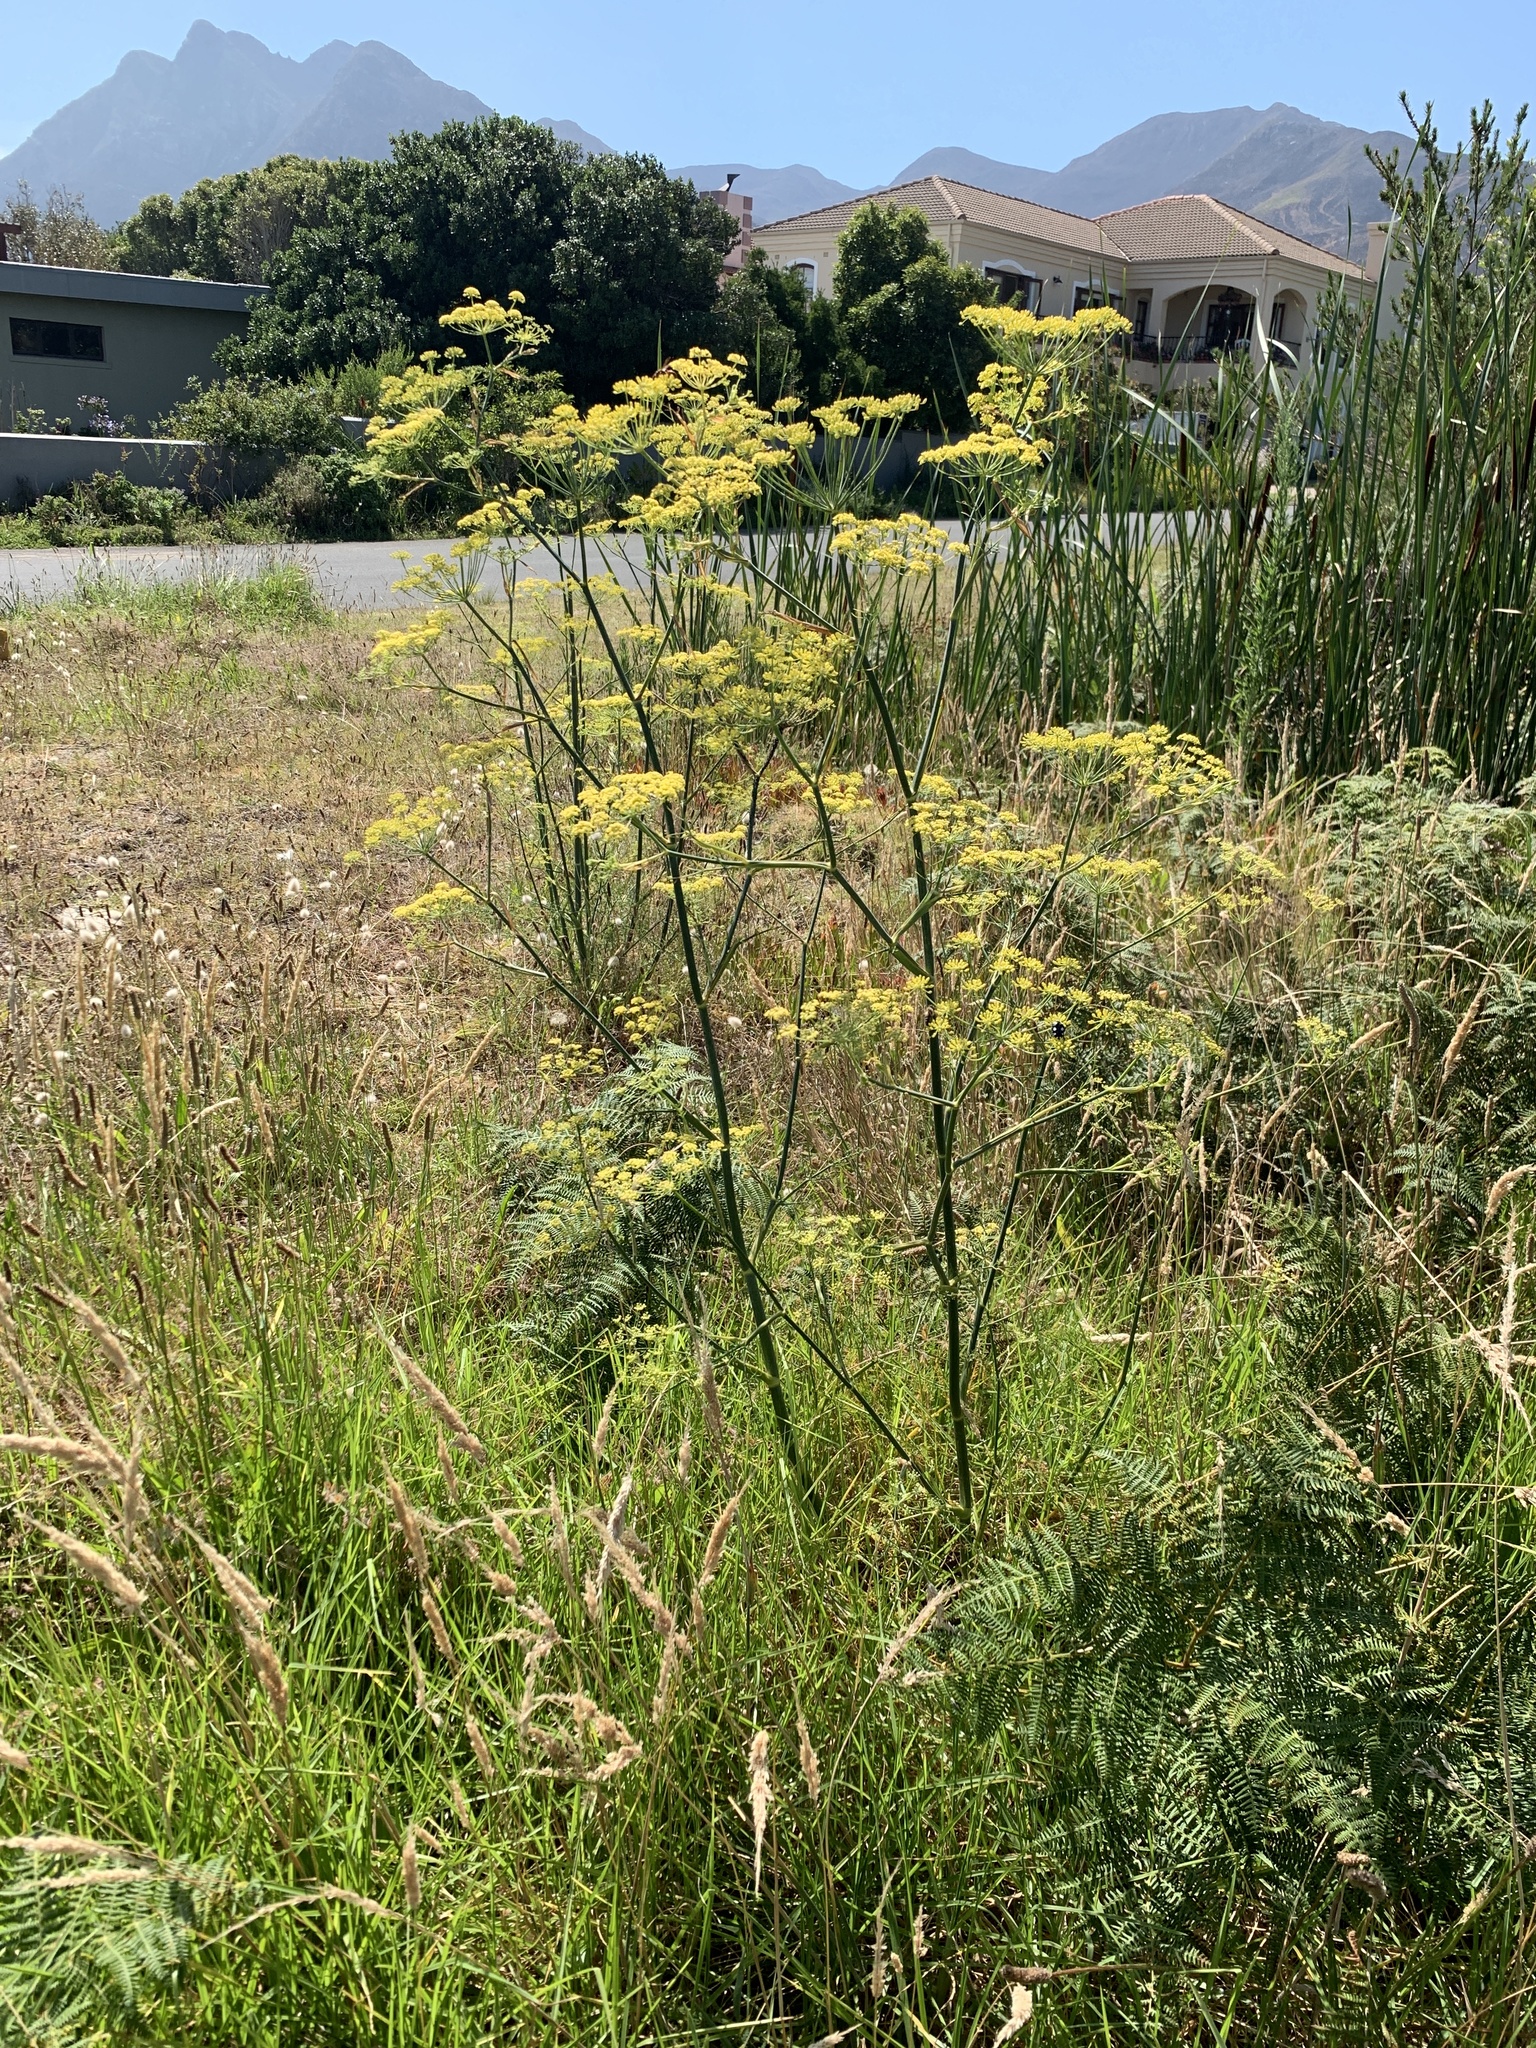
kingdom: Plantae
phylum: Tracheophyta
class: Magnoliopsida
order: Apiales
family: Apiaceae
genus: Foeniculum
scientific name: Foeniculum vulgare
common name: Fennel
